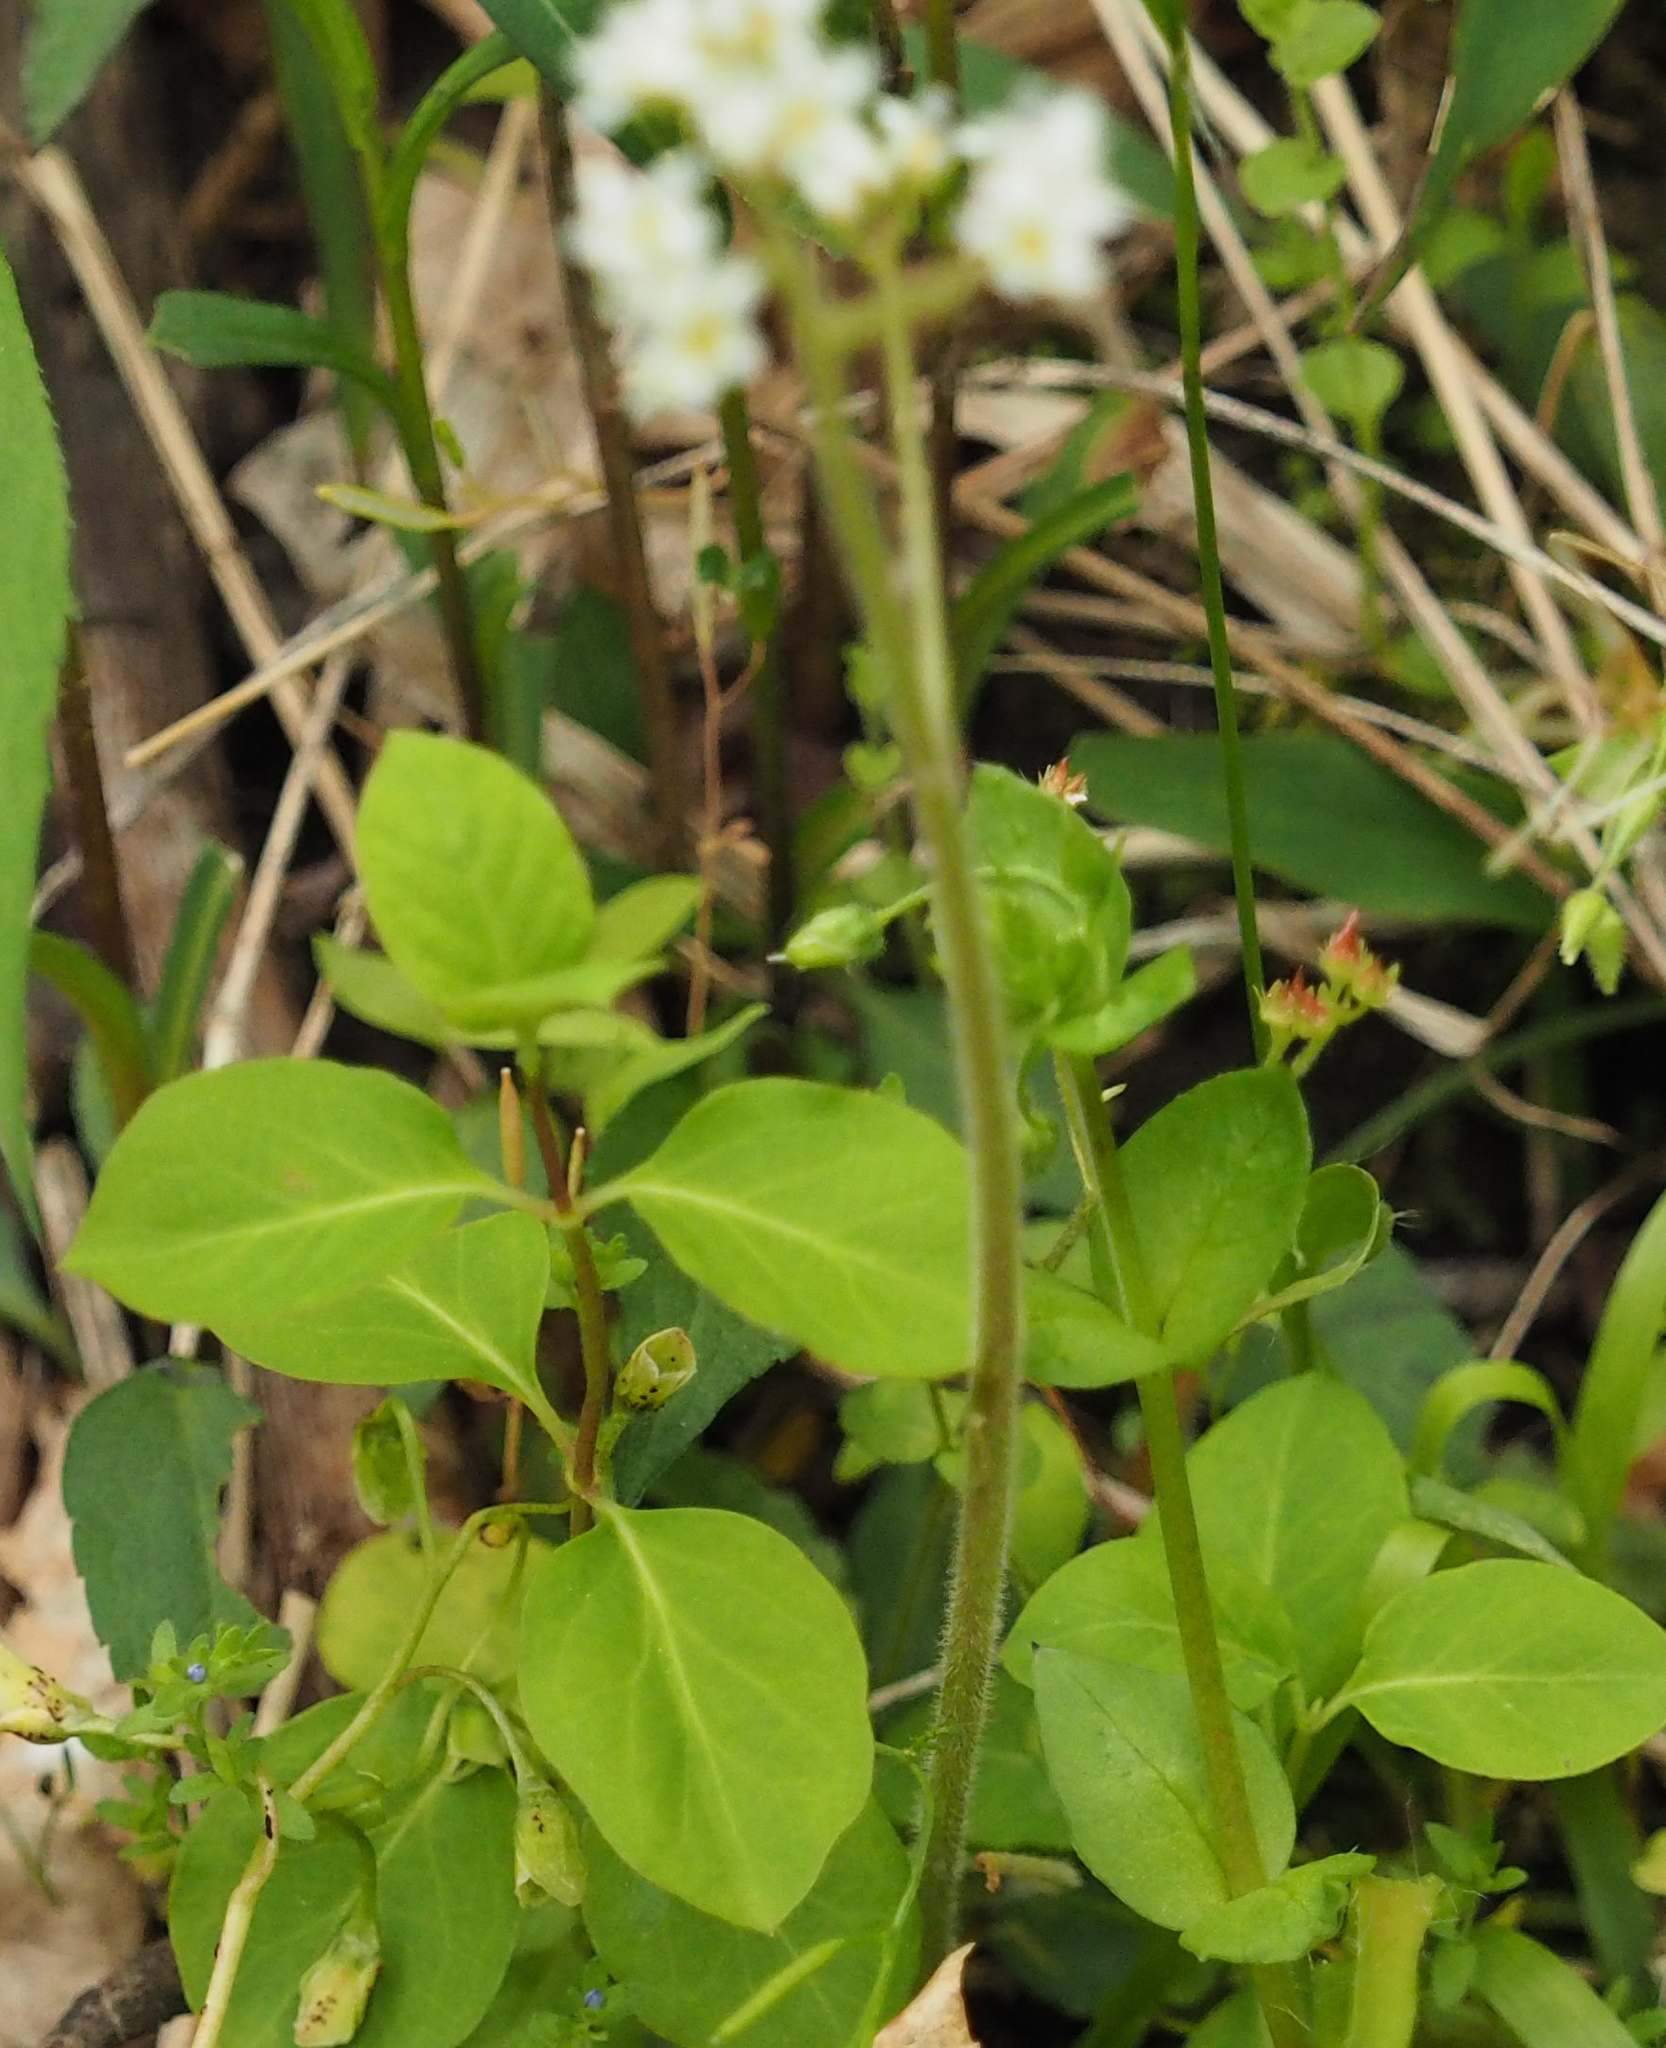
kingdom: Plantae
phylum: Tracheophyta
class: Magnoliopsida
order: Saxifragales
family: Saxifragaceae
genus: Micranthes
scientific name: Micranthes virginiensis
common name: Early saxifrage
